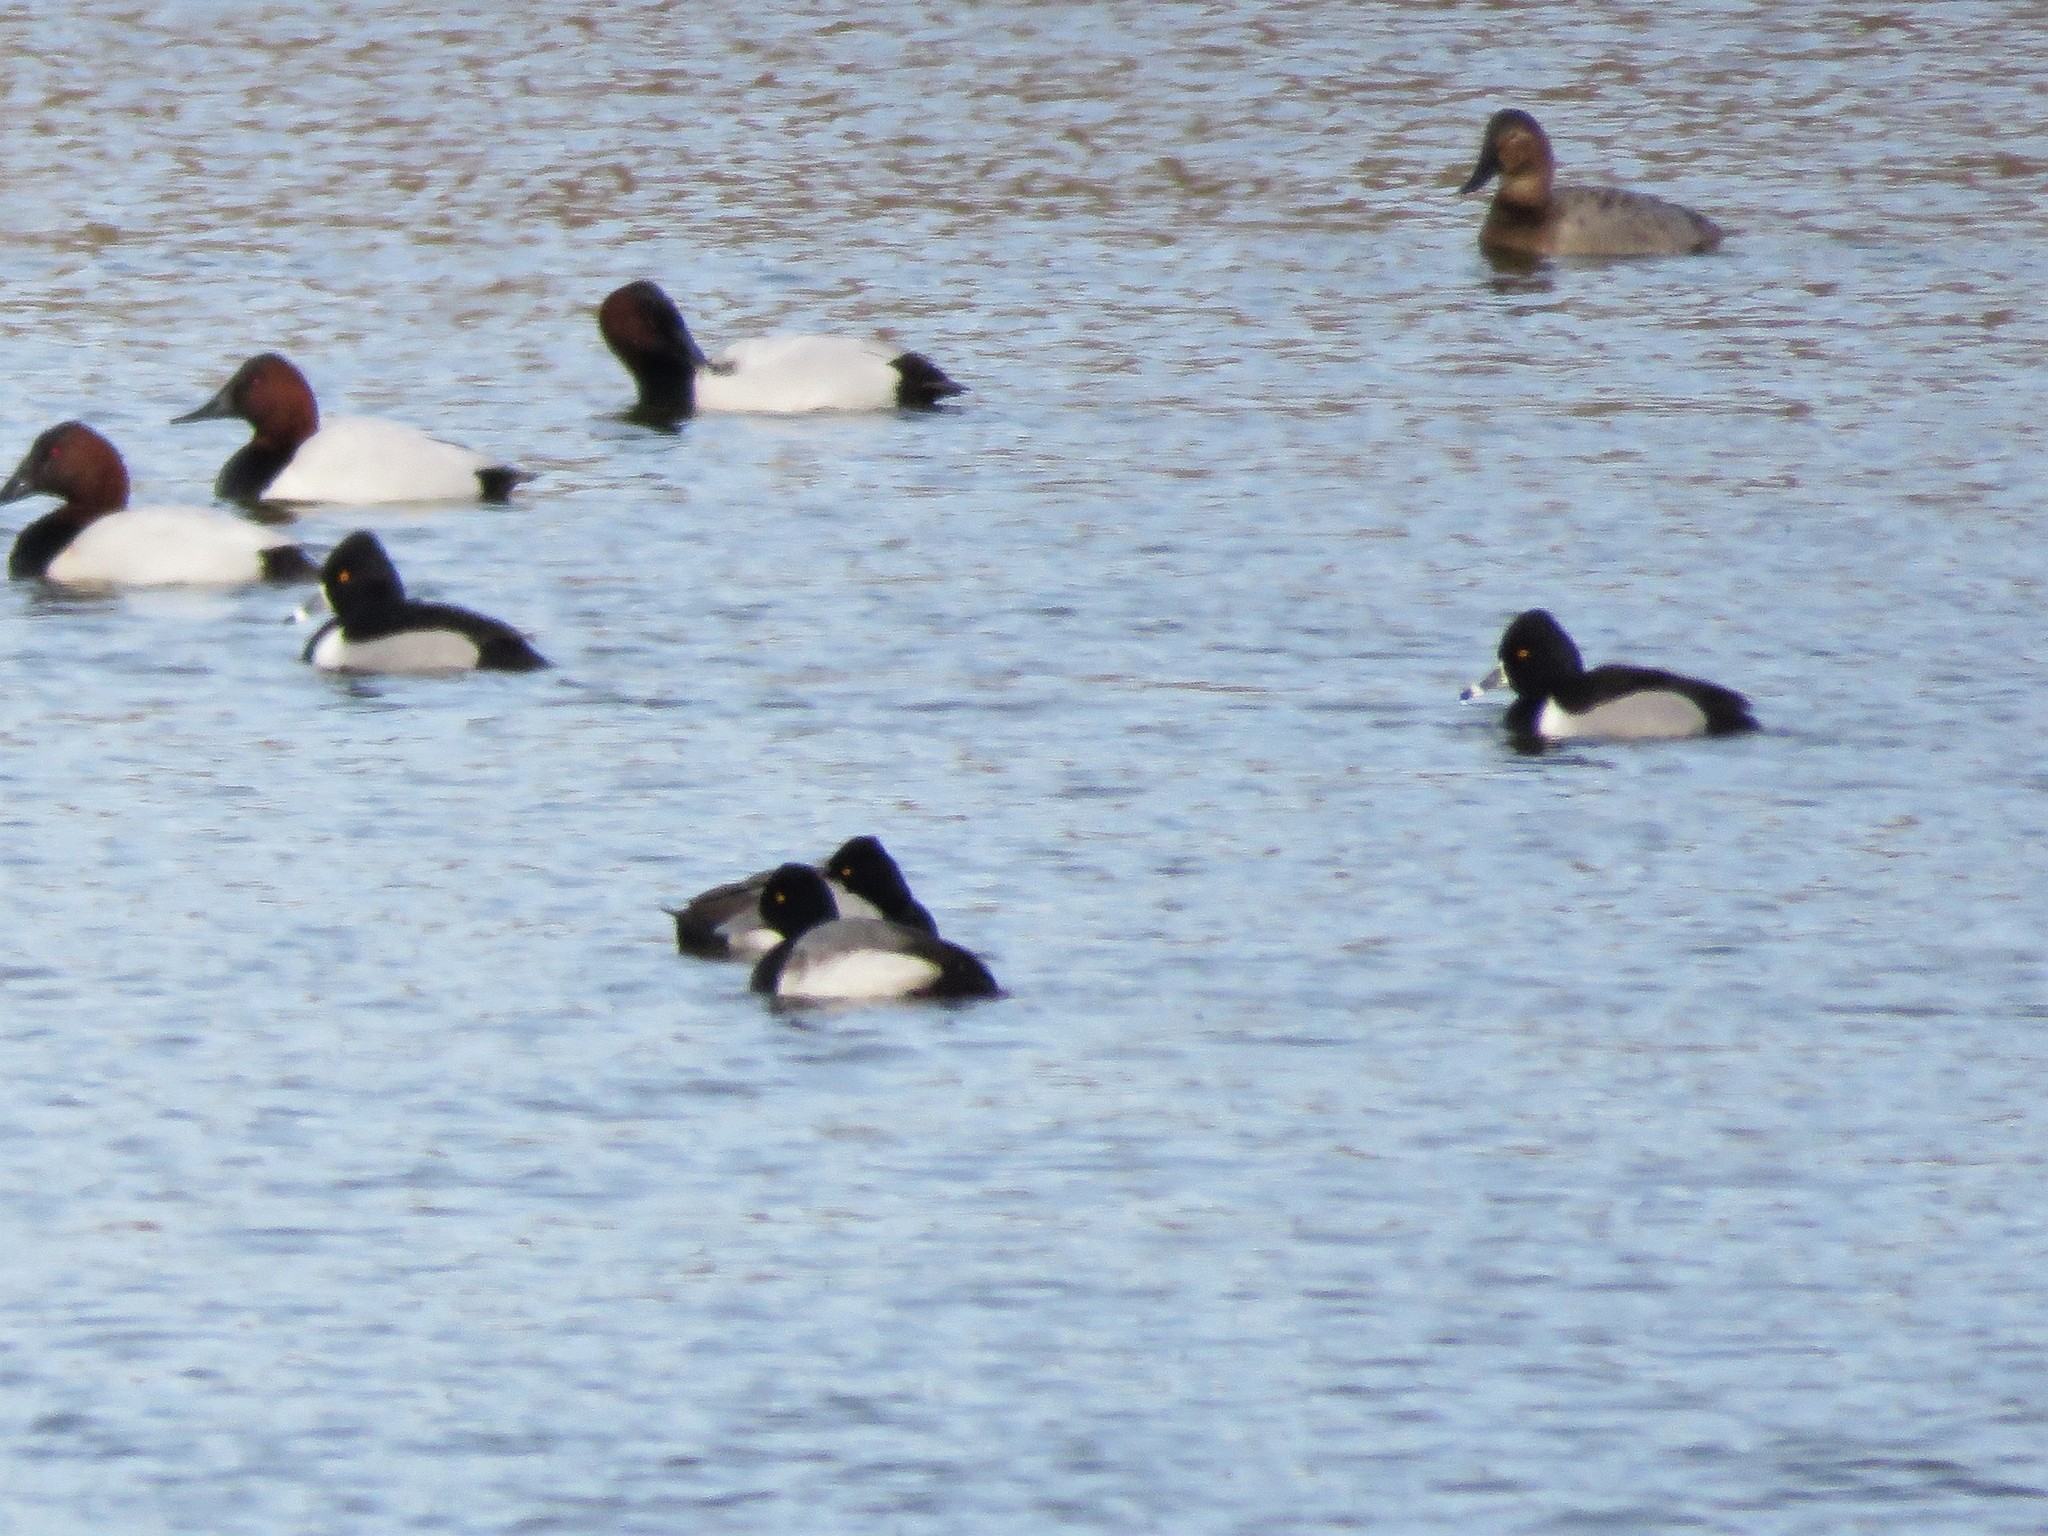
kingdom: Animalia
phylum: Chordata
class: Aves
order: Anseriformes
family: Anatidae
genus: Aythya
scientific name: Aythya collaris
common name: Ring-necked duck
